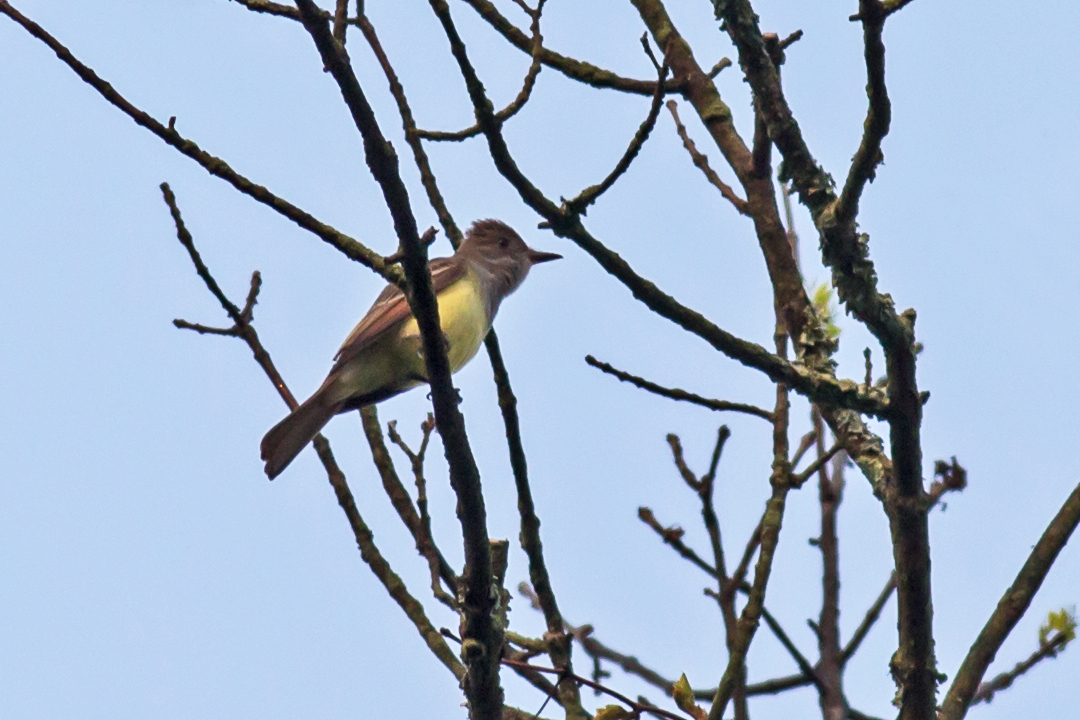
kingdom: Animalia
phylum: Chordata
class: Aves
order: Passeriformes
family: Tyrannidae
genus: Myiarchus
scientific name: Myiarchus crinitus
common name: Great crested flycatcher
